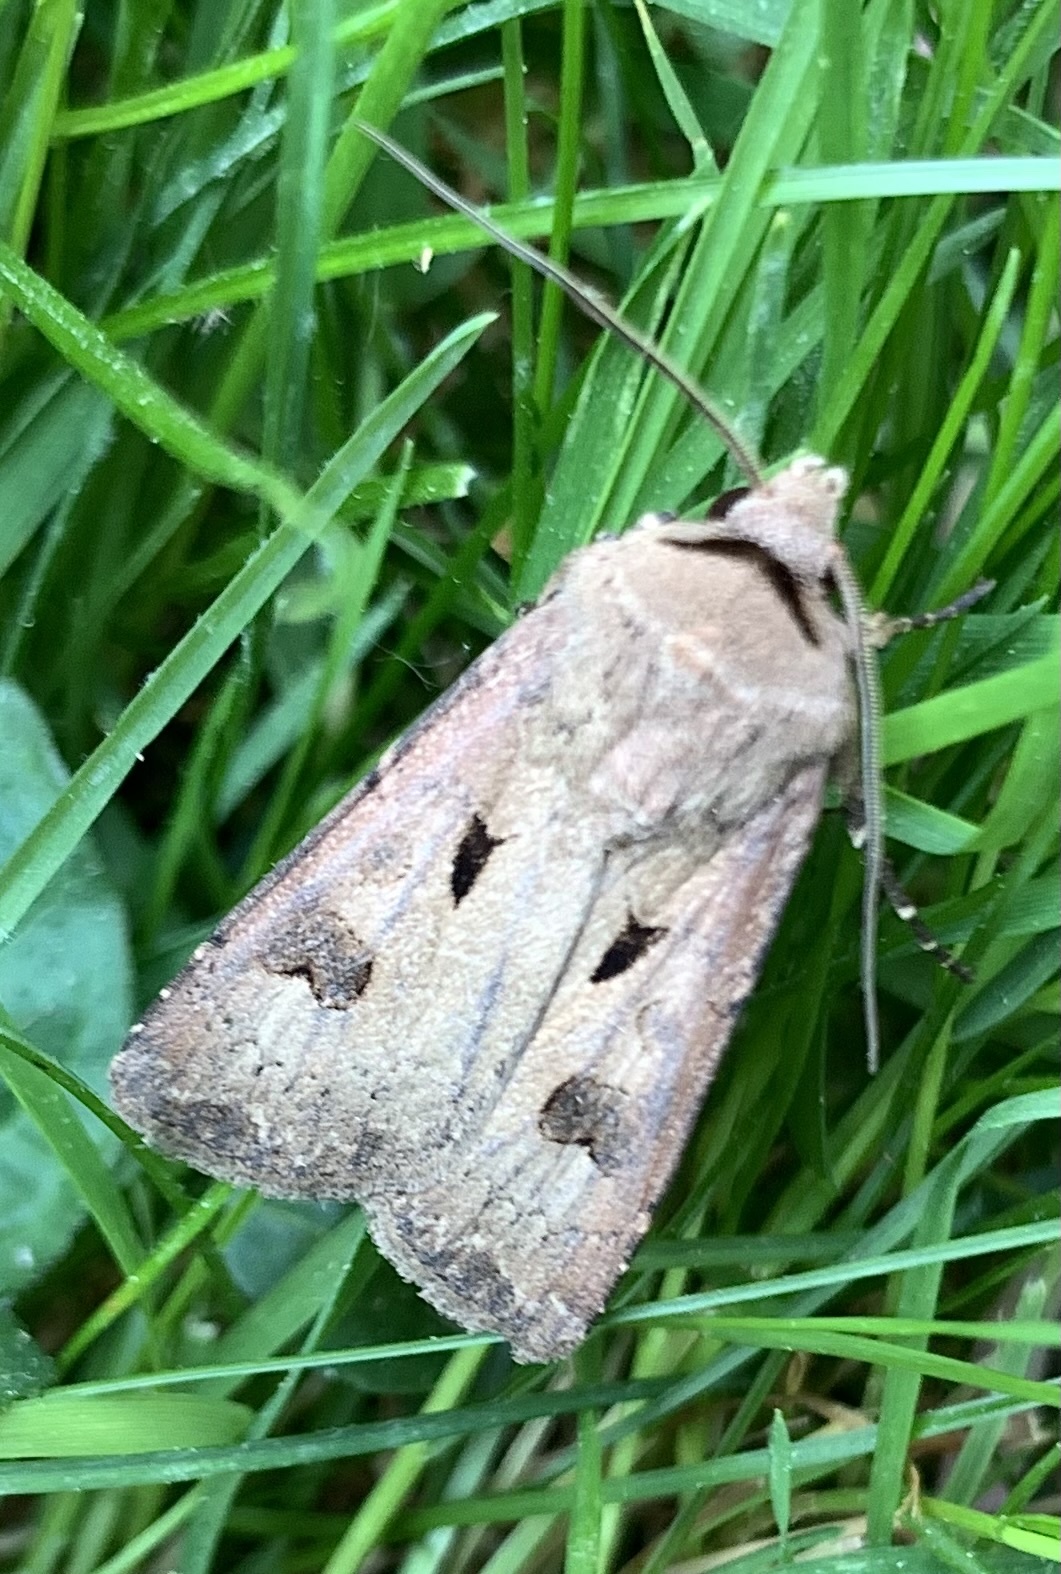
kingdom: Animalia
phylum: Arthropoda
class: Insecta
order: Lepidoptera
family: Noctuidae
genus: Agrotis
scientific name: Agrotis exclamationis
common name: Heart and dart
